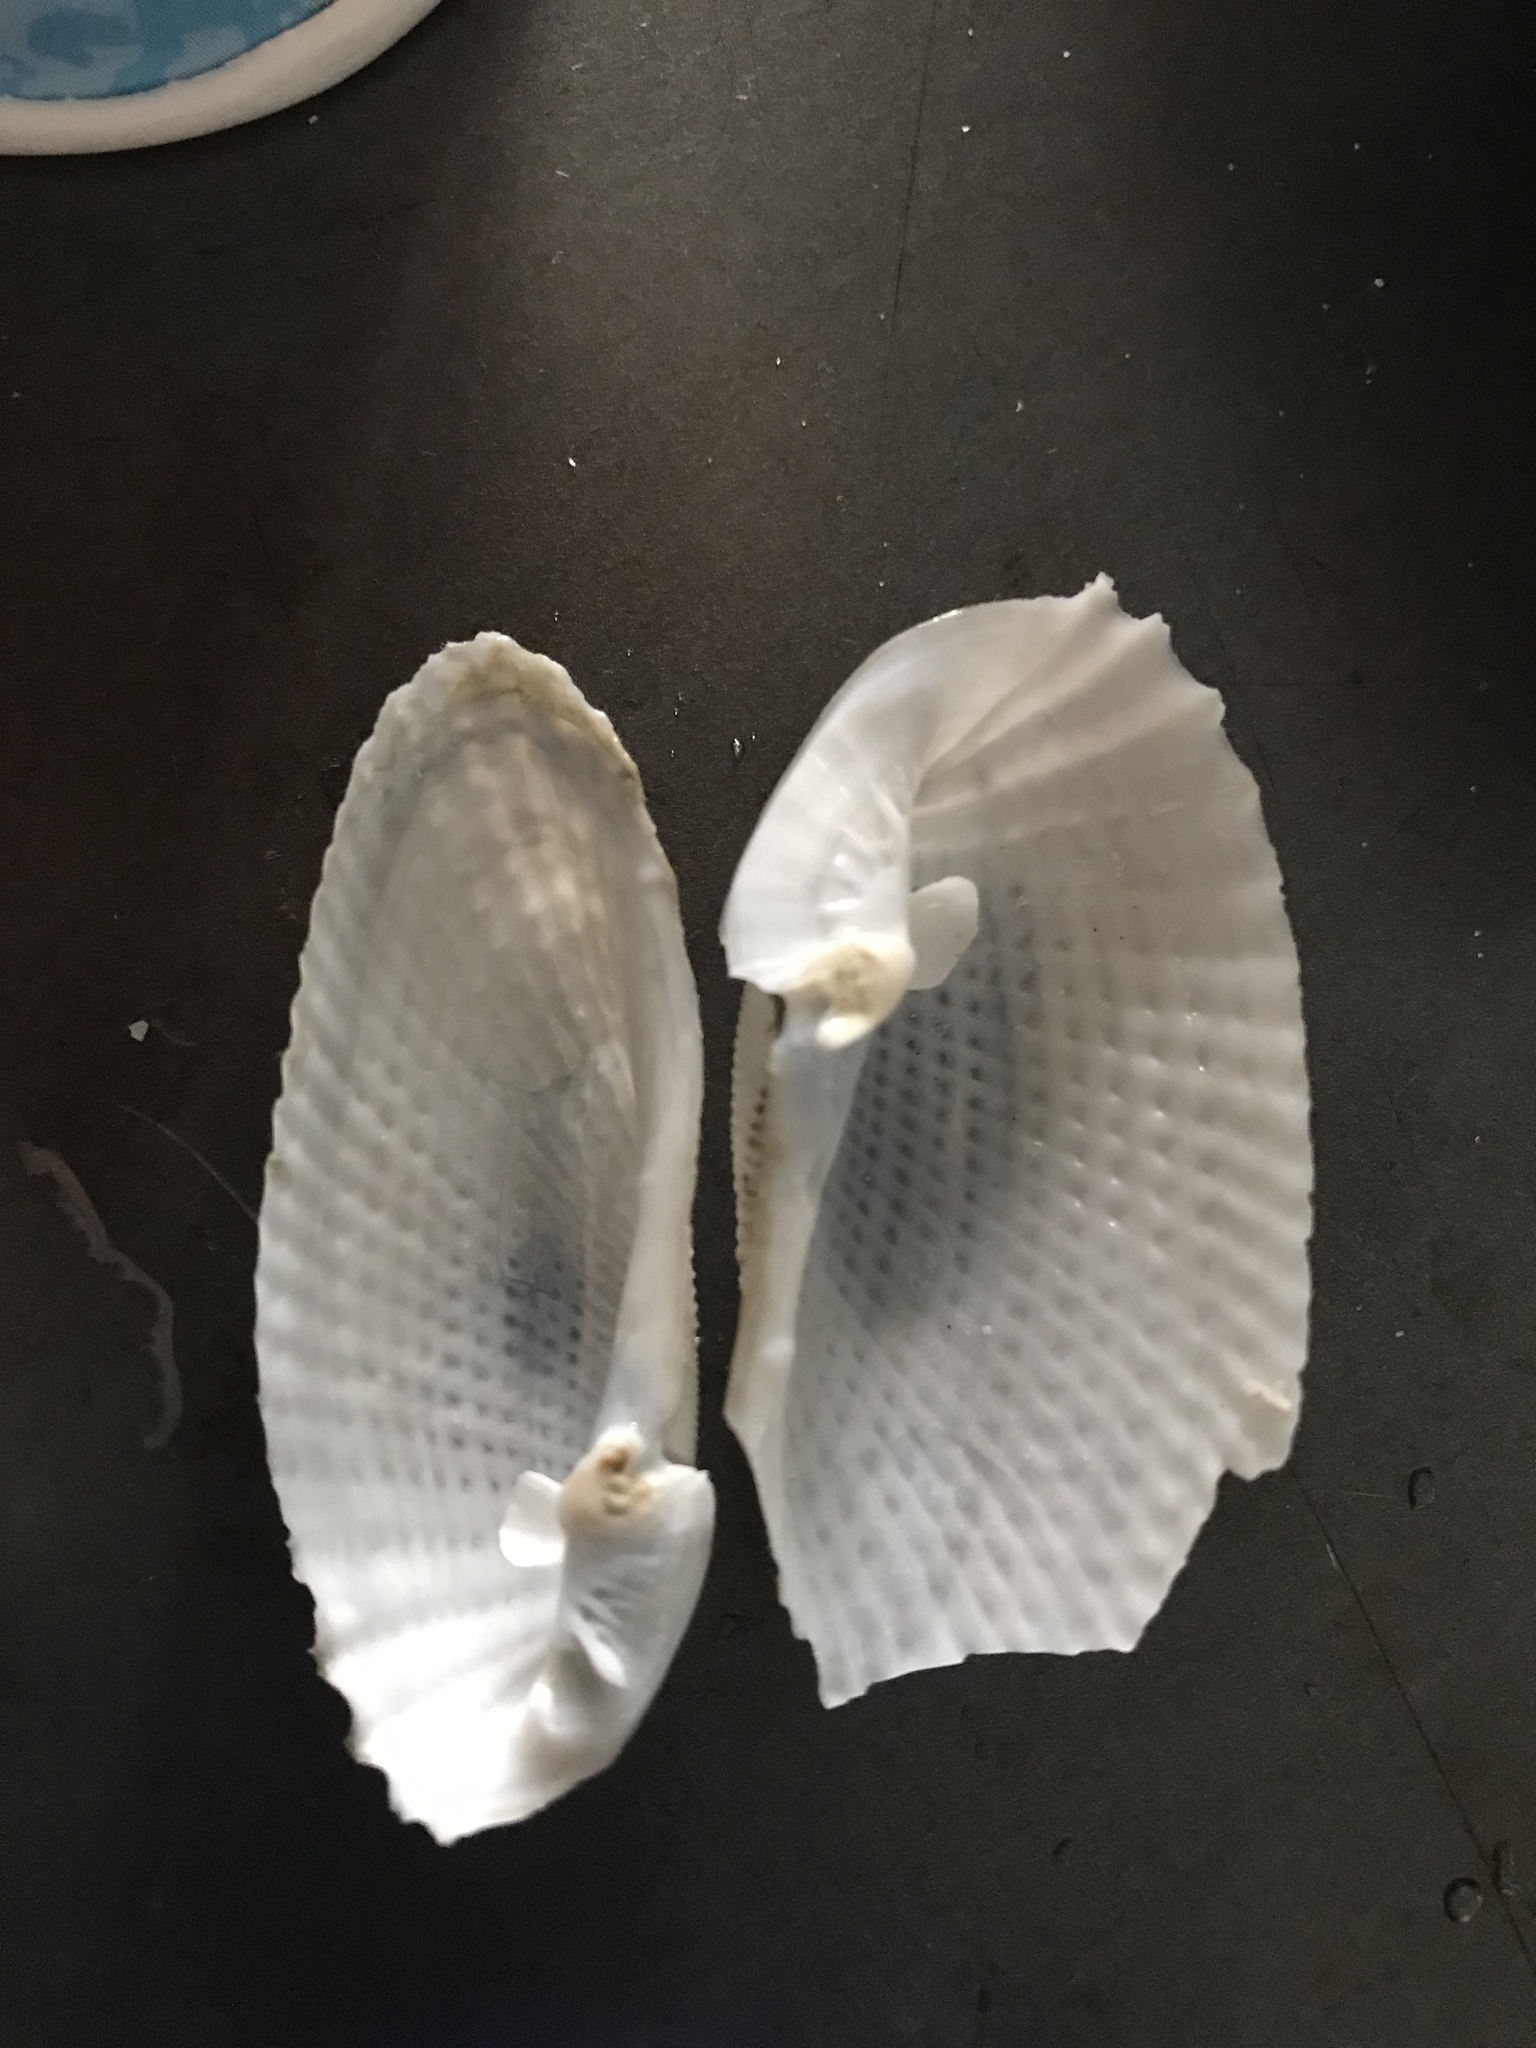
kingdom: Animalia
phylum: Mollusca
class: Bivalvia
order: Myida
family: Pholadidae
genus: Cyrtopleura
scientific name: Cyrtopleura costata
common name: Angel wing
